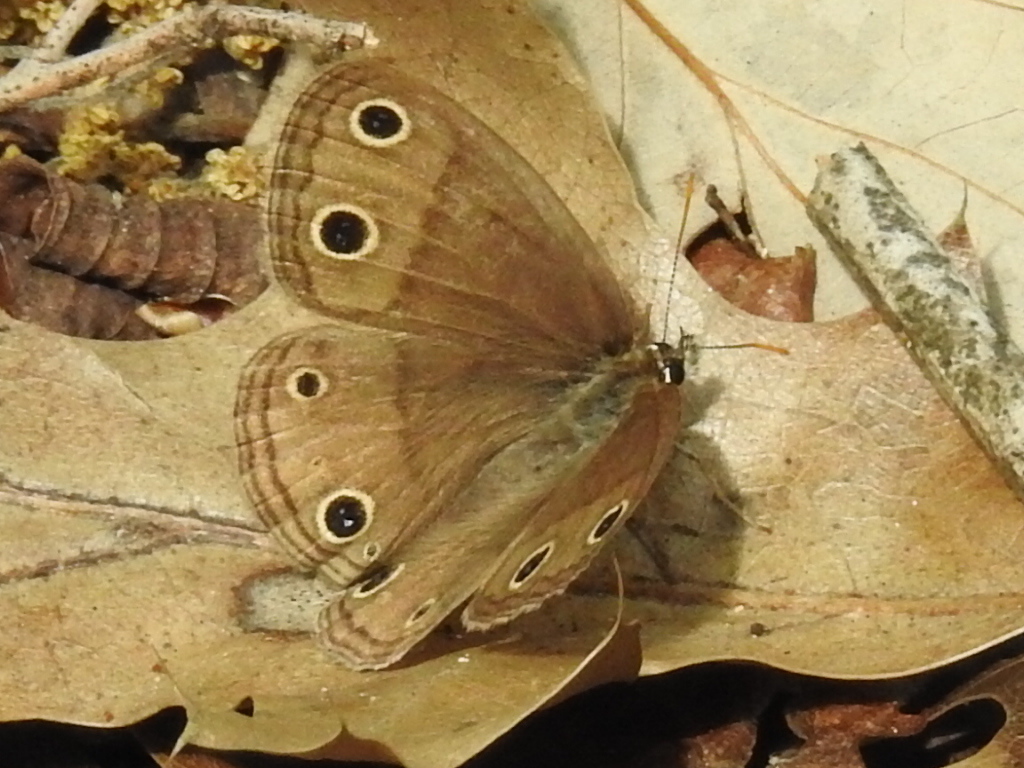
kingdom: Animalia
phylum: Arthropoda
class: Insecta
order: Lepidoptera
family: Nymphalidae
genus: Euptychia
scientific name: Euptychia cymela
